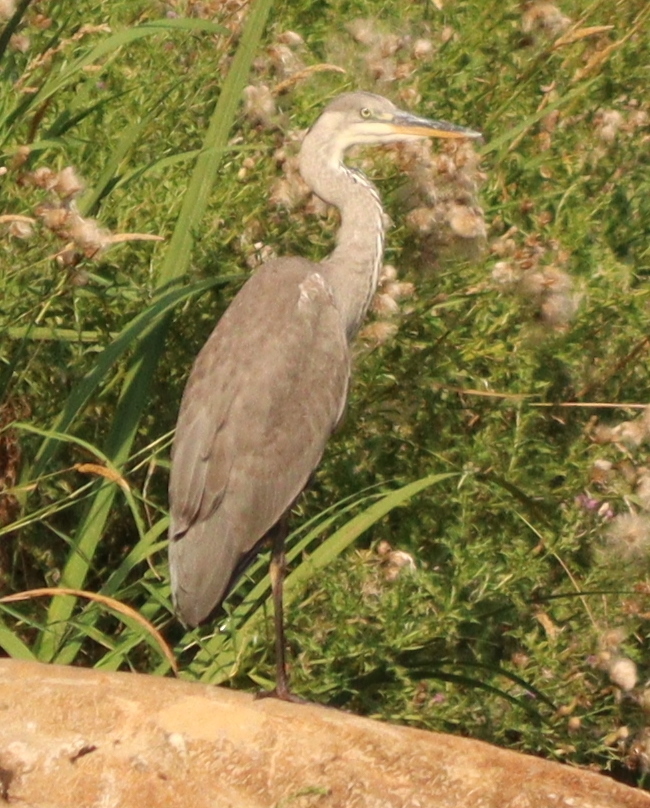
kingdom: Animalia
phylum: Chordata
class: Aves
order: Pelecaniformes
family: Ardeidae
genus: Ardea
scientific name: Ardea cinerea
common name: Grey heron
